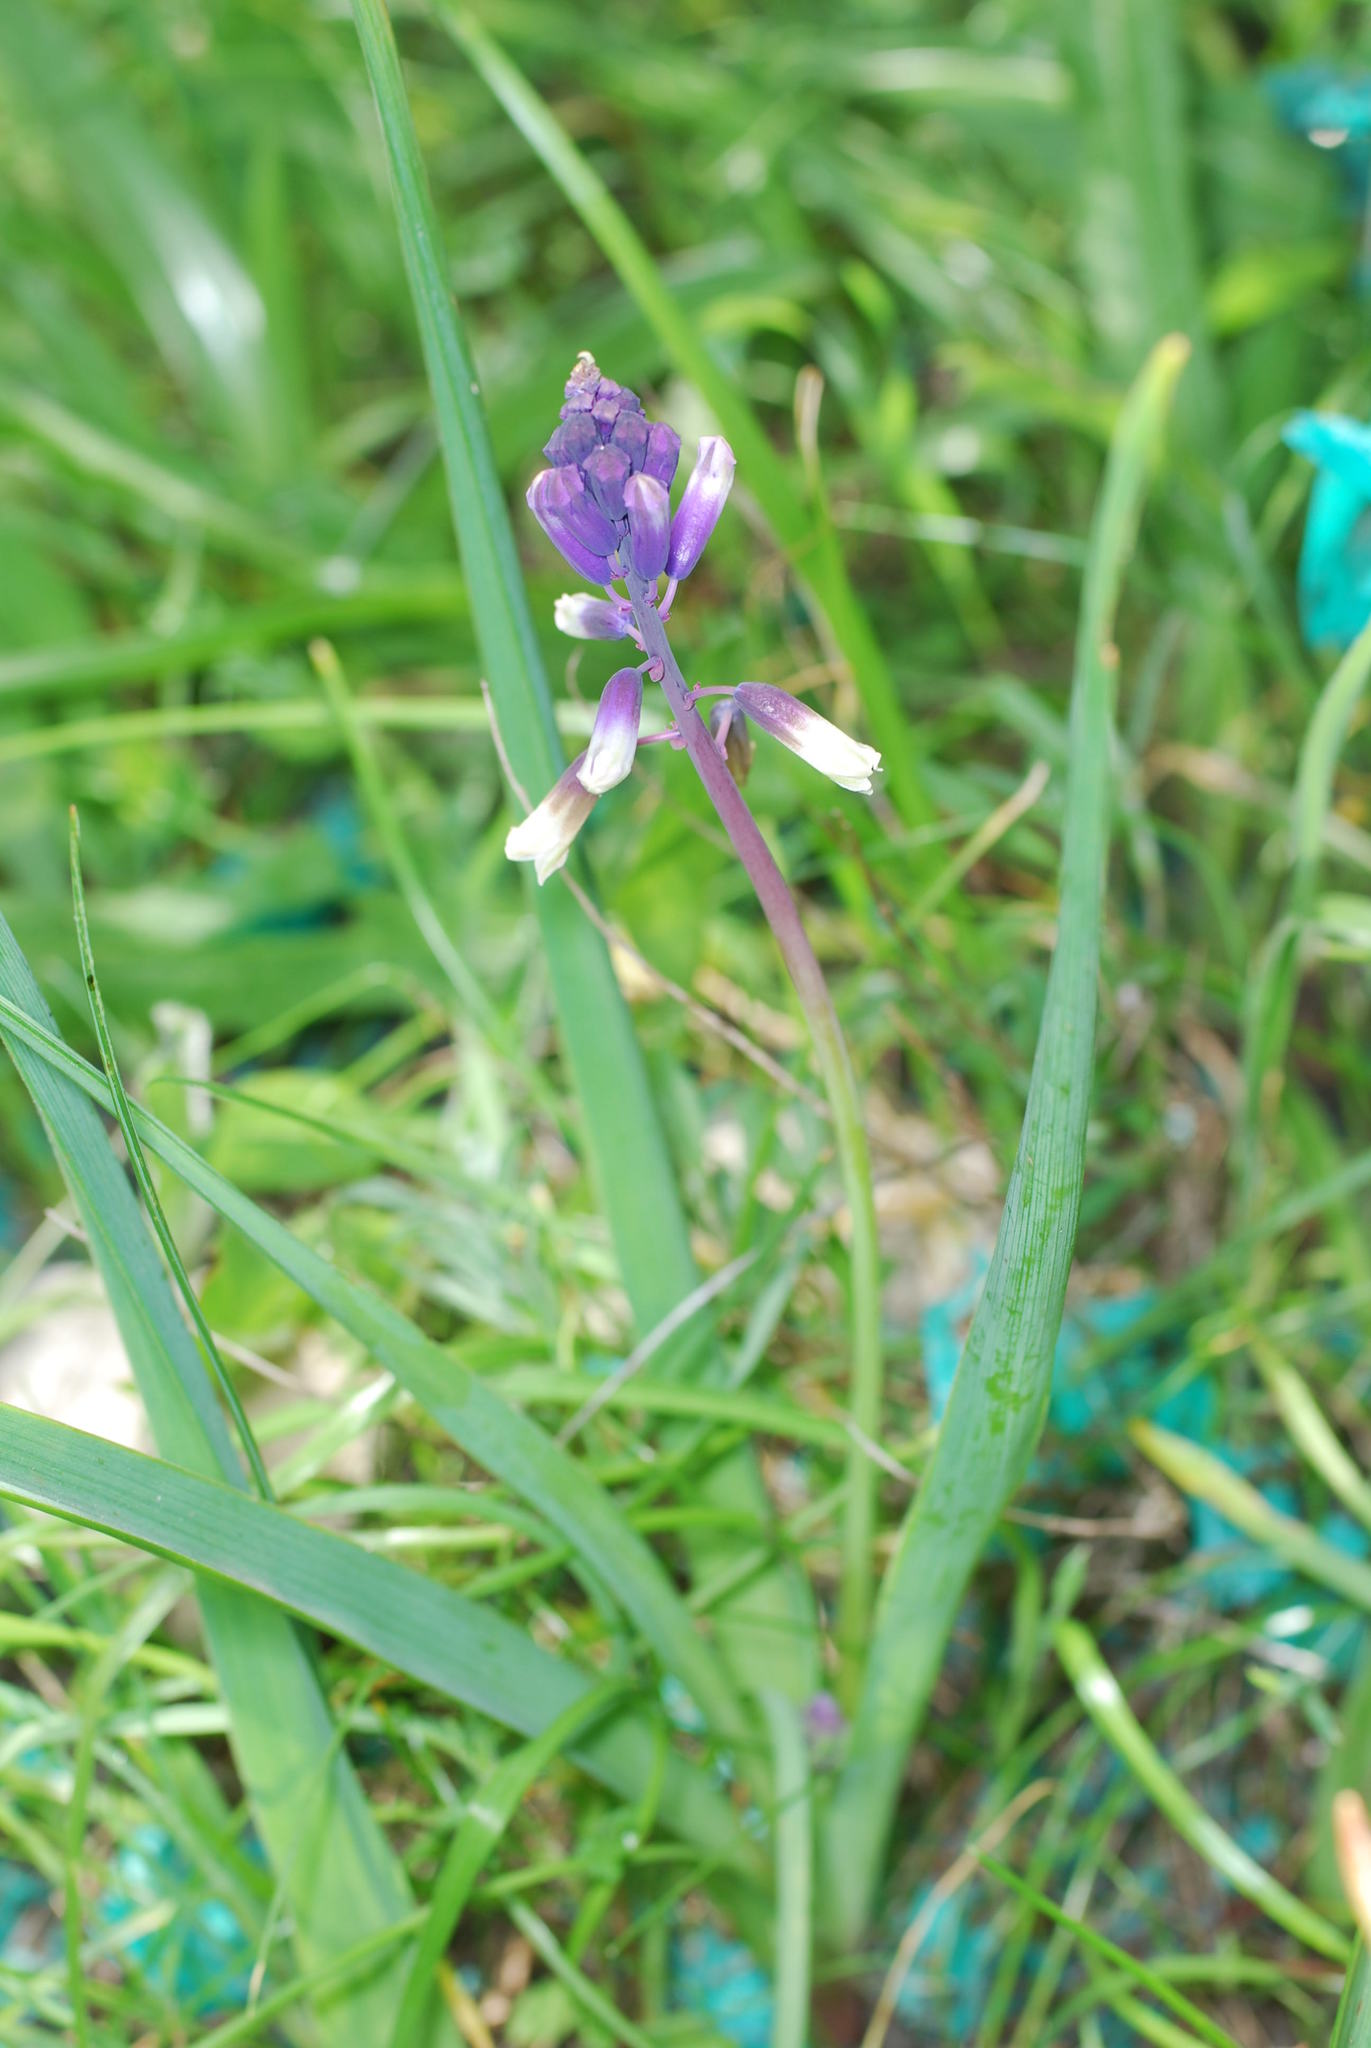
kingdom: Plantae
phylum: Tracheophyta
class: Liliopsida
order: Asparagales
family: Asparagaceae
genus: Bellevalia
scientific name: Bellevalia trifoliata
